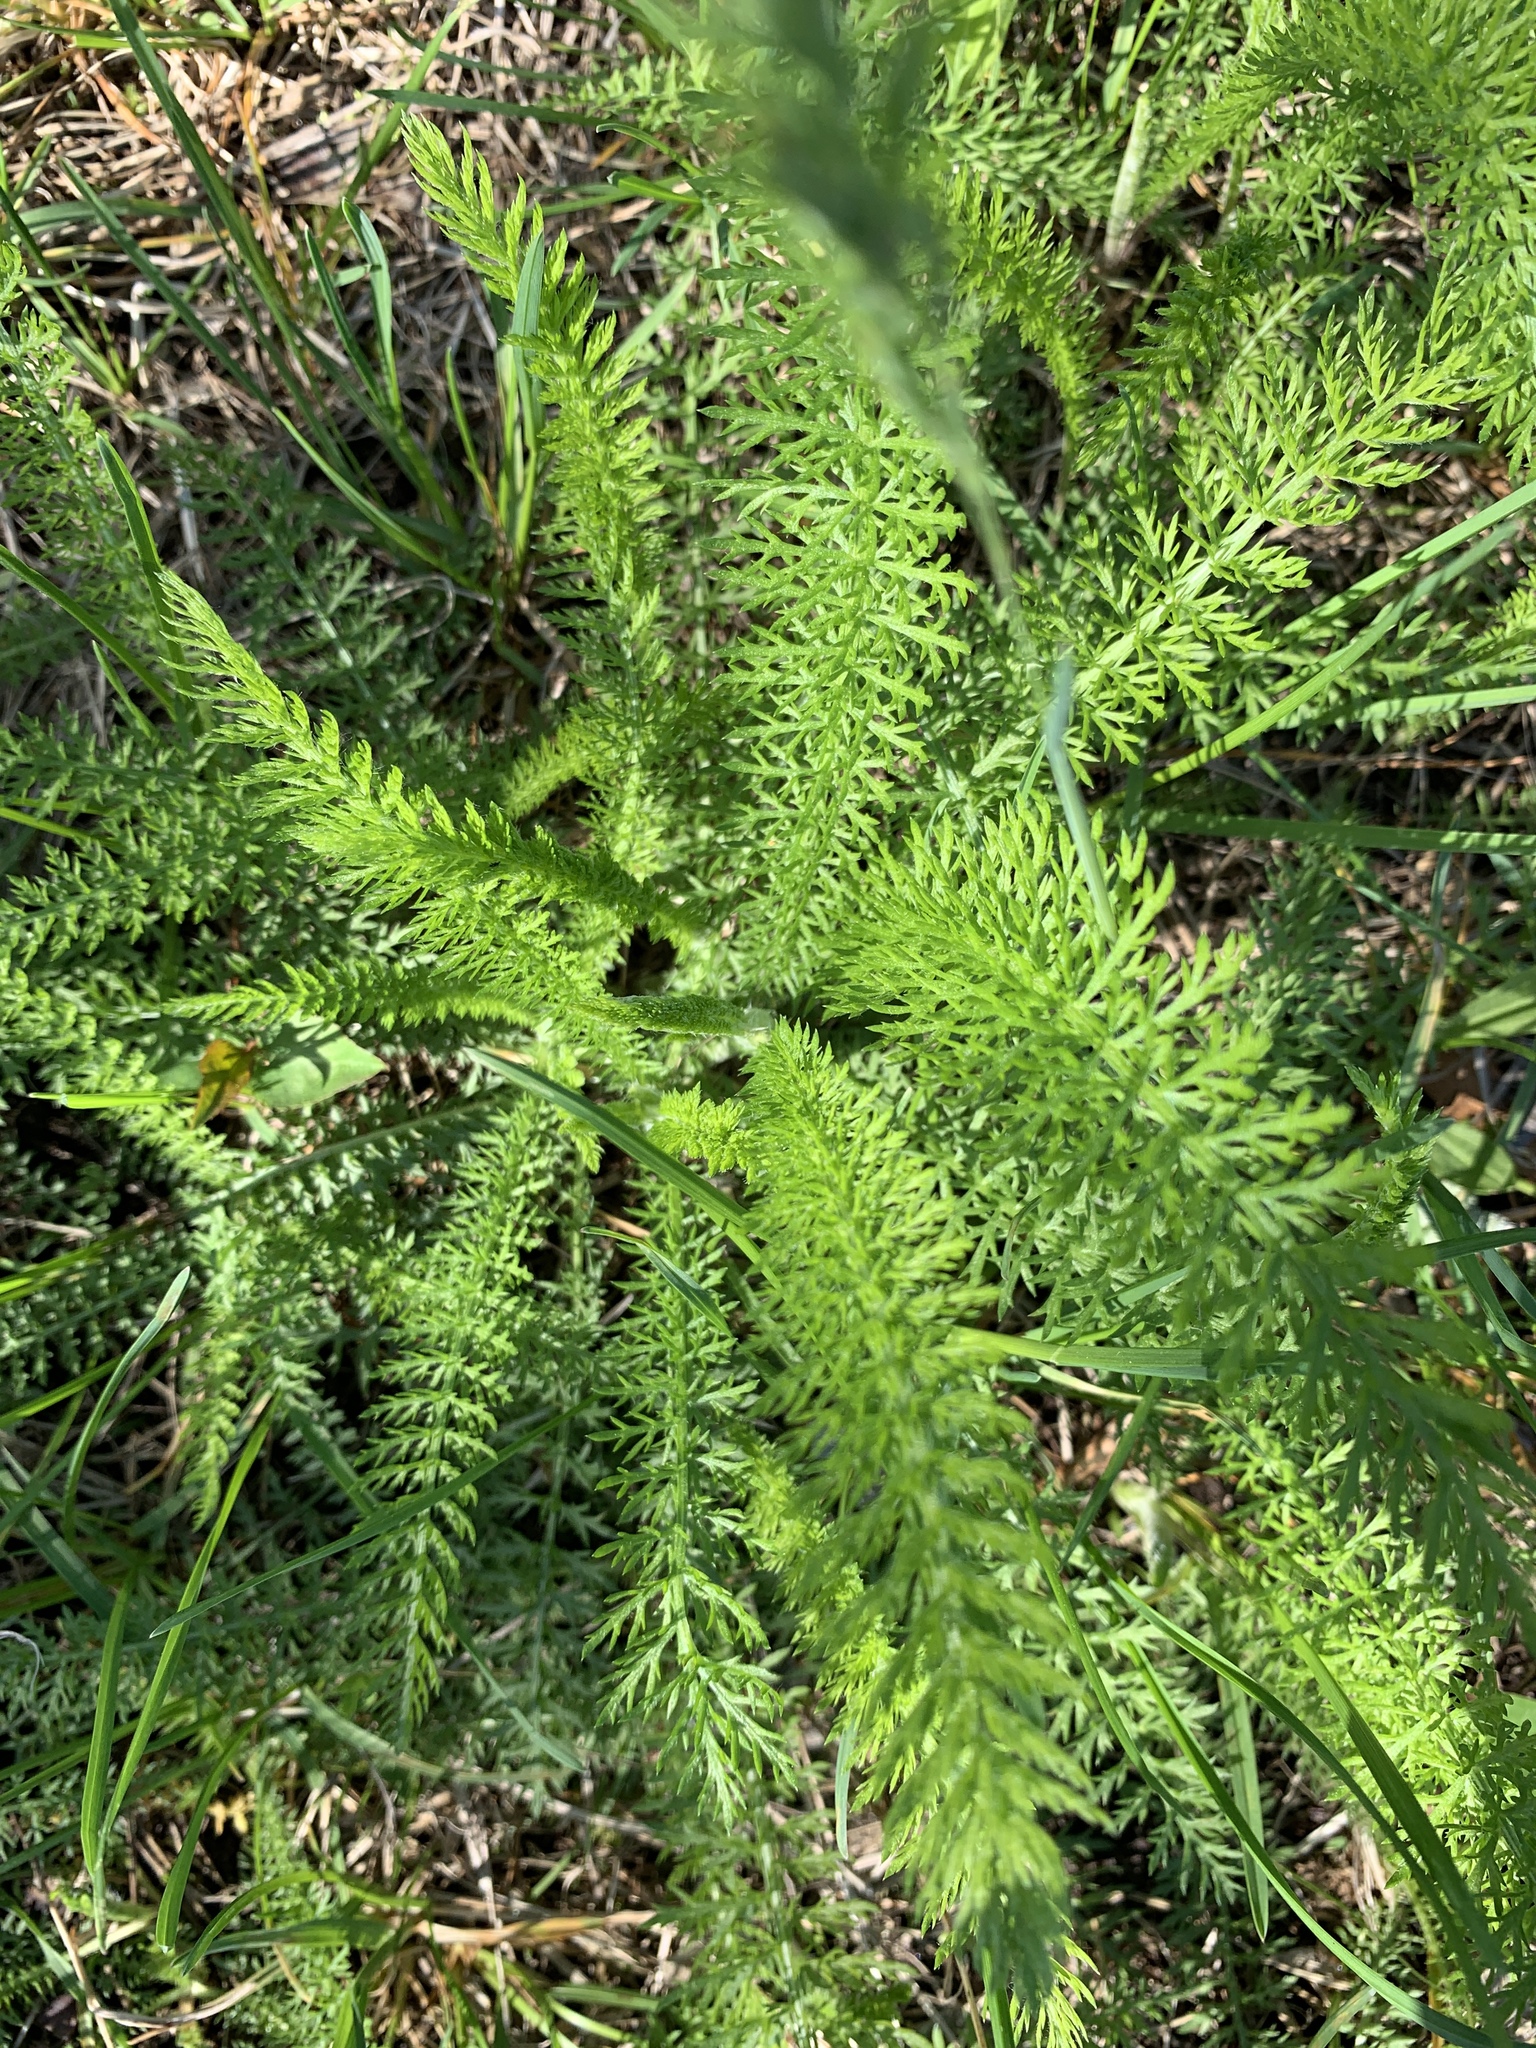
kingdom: Plantae
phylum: Tracheophyta
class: Magnoliopsida
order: Asterales
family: Asteraceae
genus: Achillea
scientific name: Achillea millefolium
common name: Yarrow
